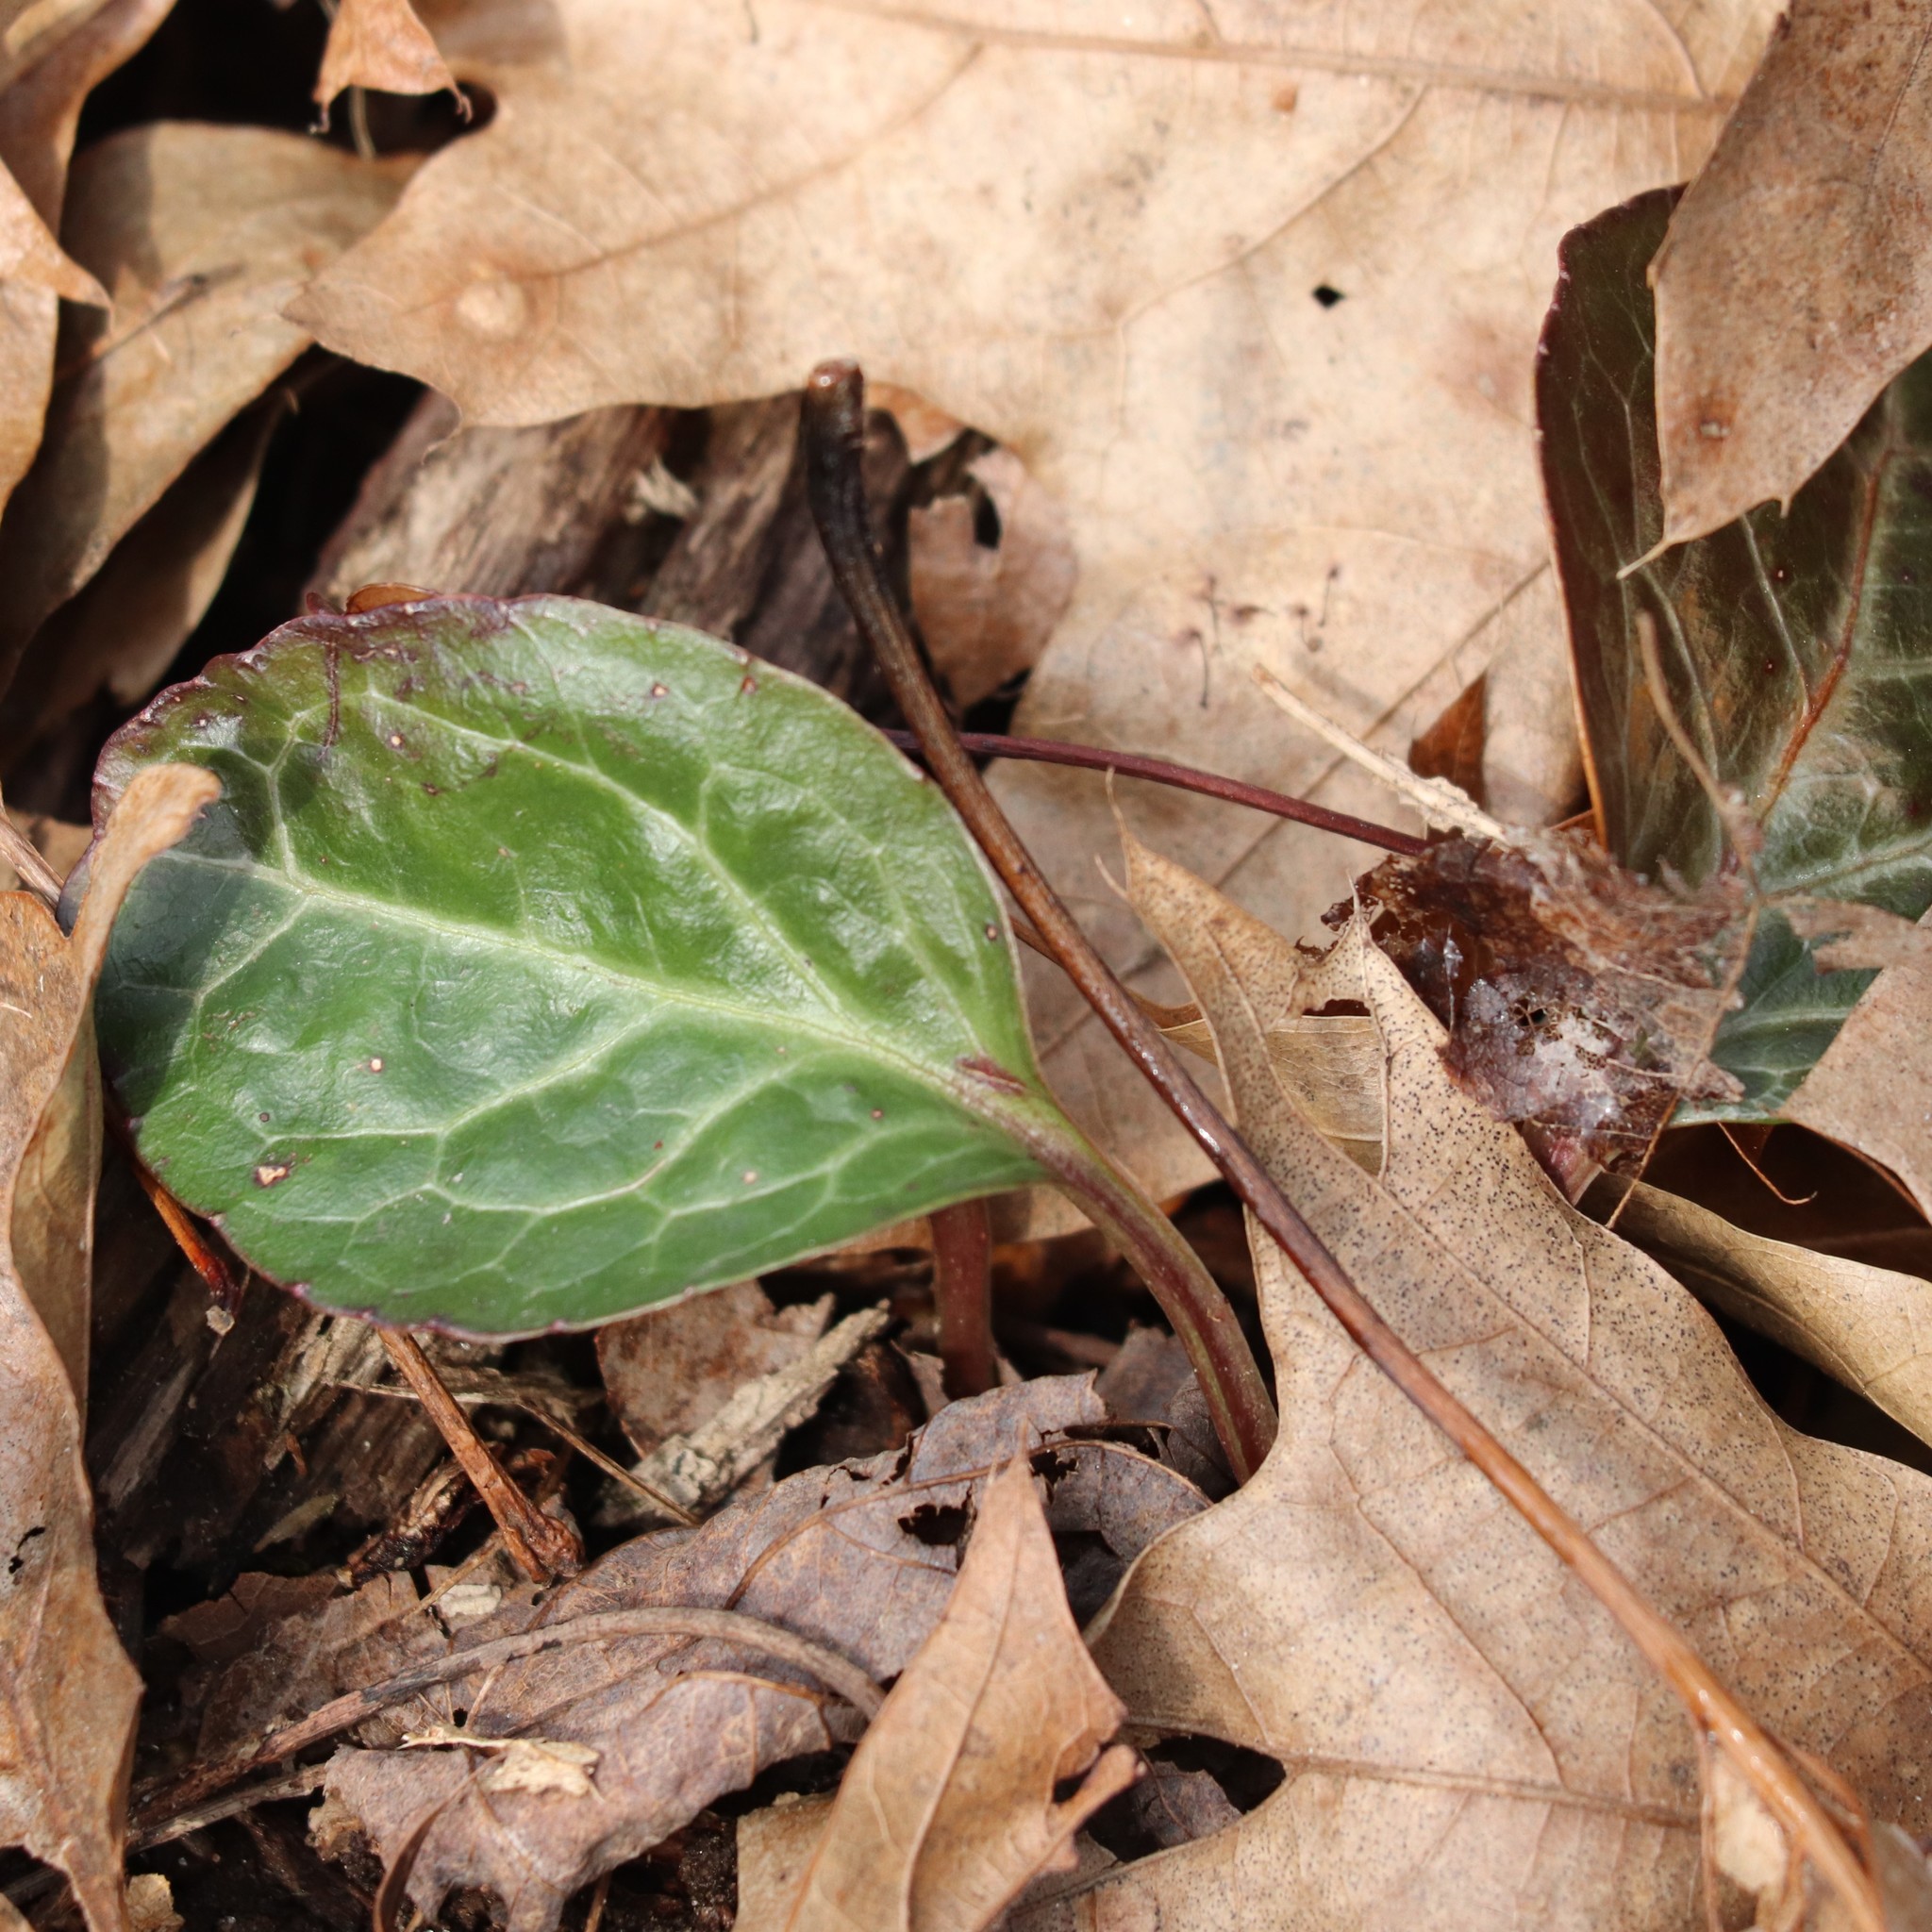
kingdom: Plantae
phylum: Tracheophyta
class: Magnoliopsida
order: Ericales
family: Ericaceae
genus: Pyrola
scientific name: Pyrola americana
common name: American wintergreen
